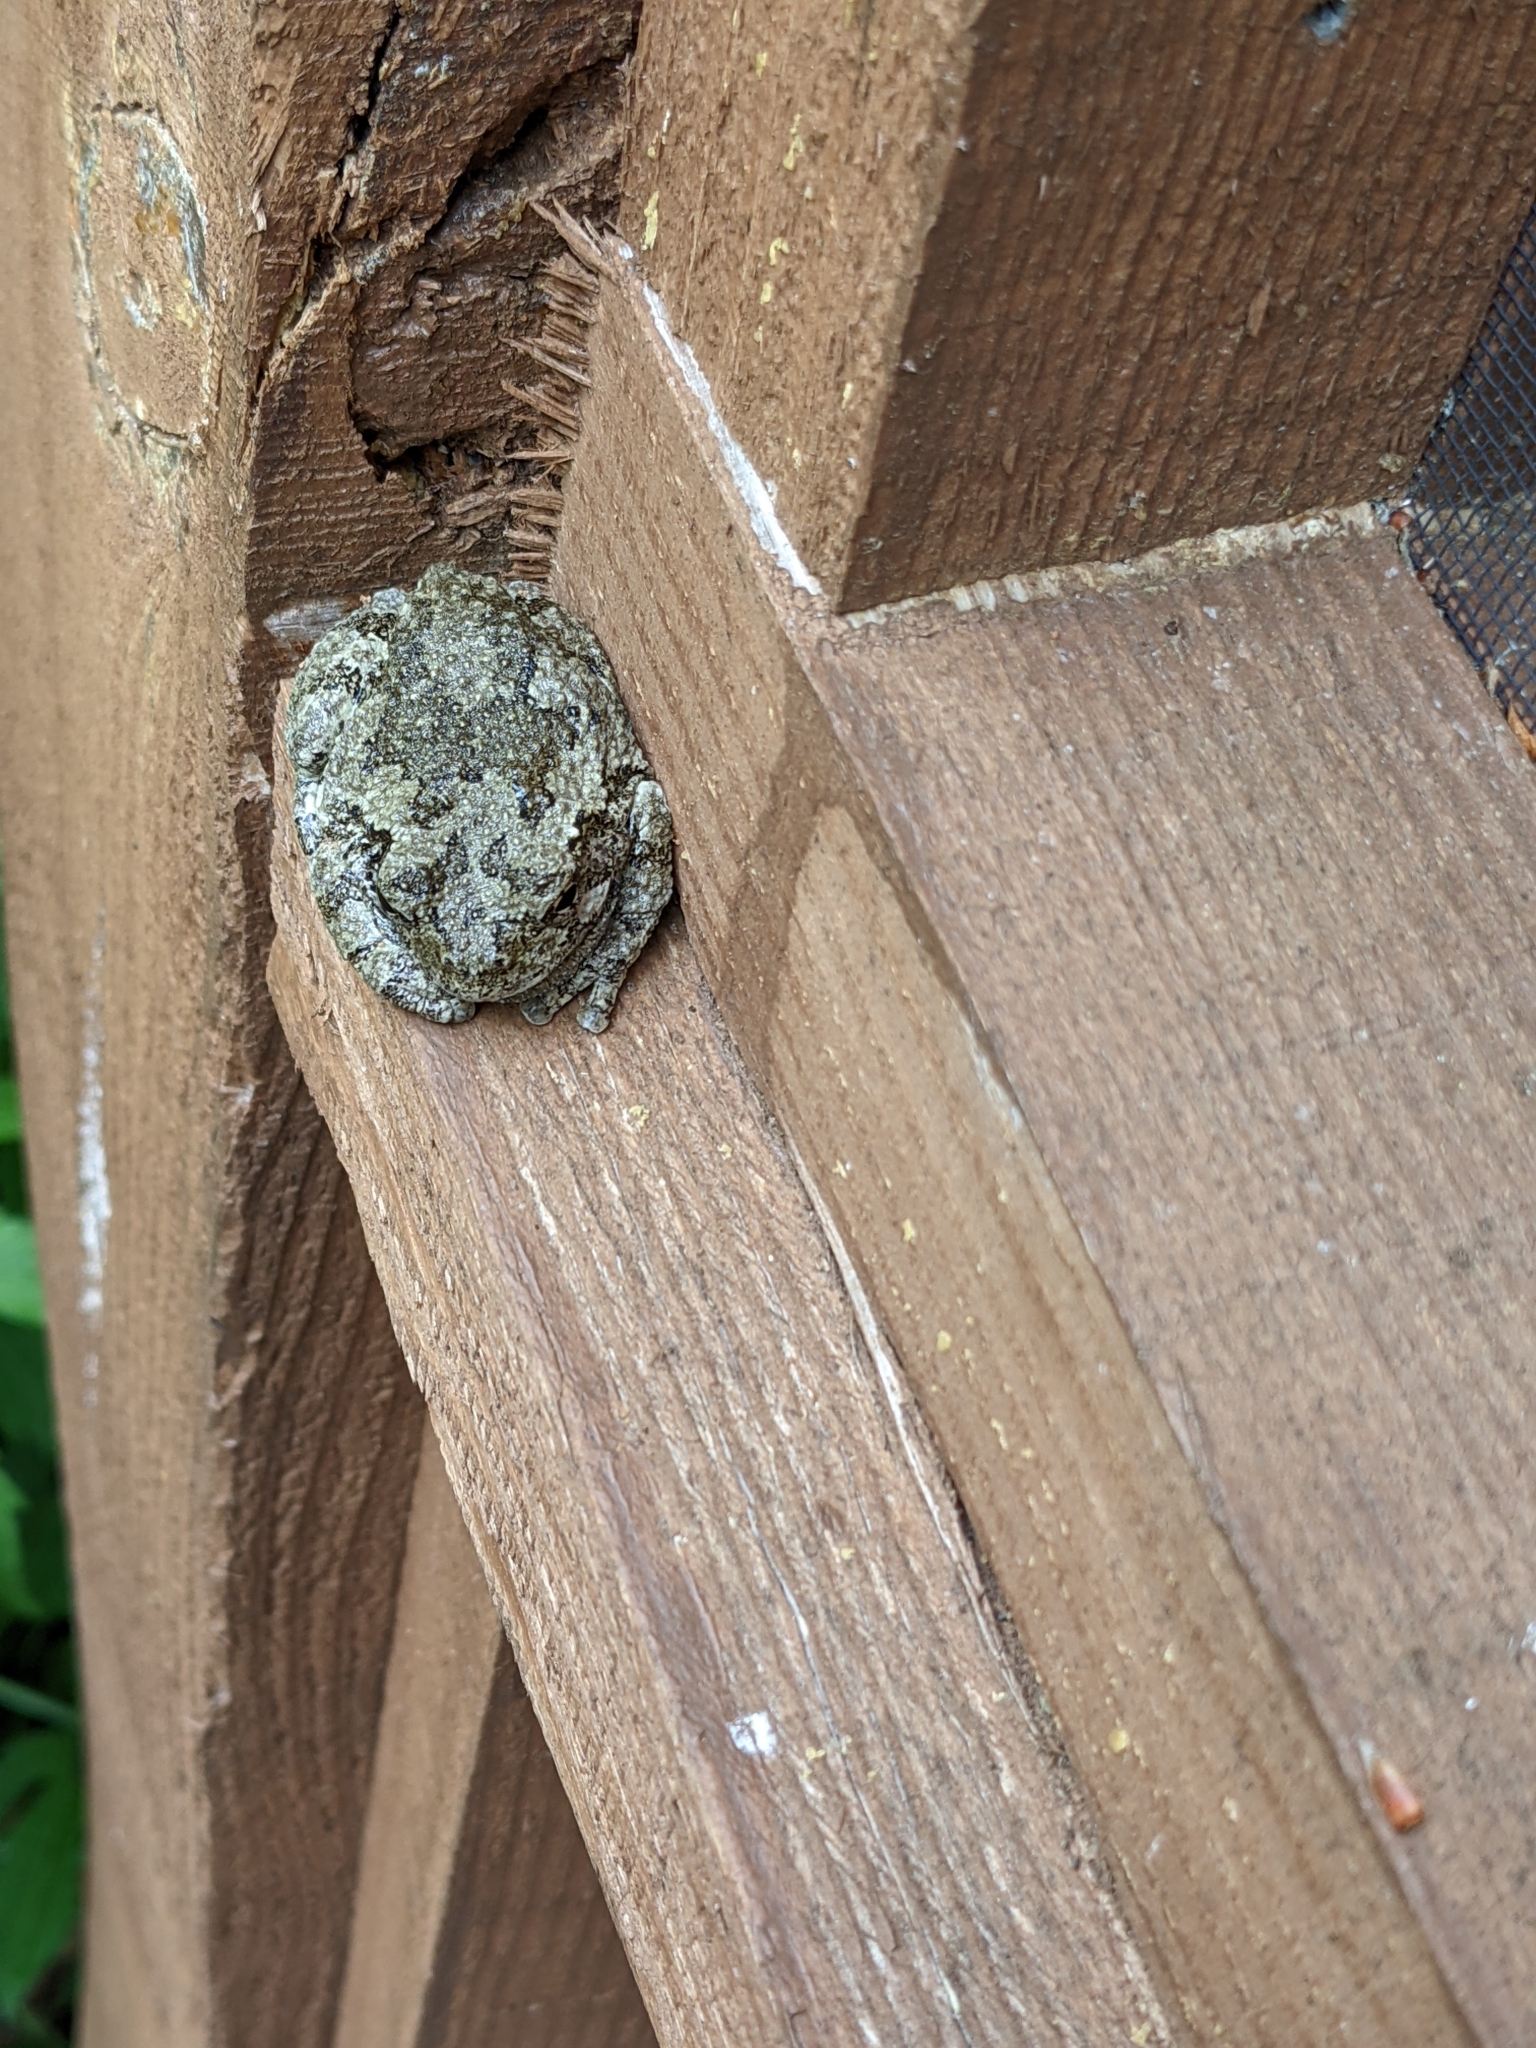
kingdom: Animalia
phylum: Chordata
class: Amphibia
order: Anura
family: Hylidae
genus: Dryophytes
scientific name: Dryophytes versicolor
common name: Gray treefrog
